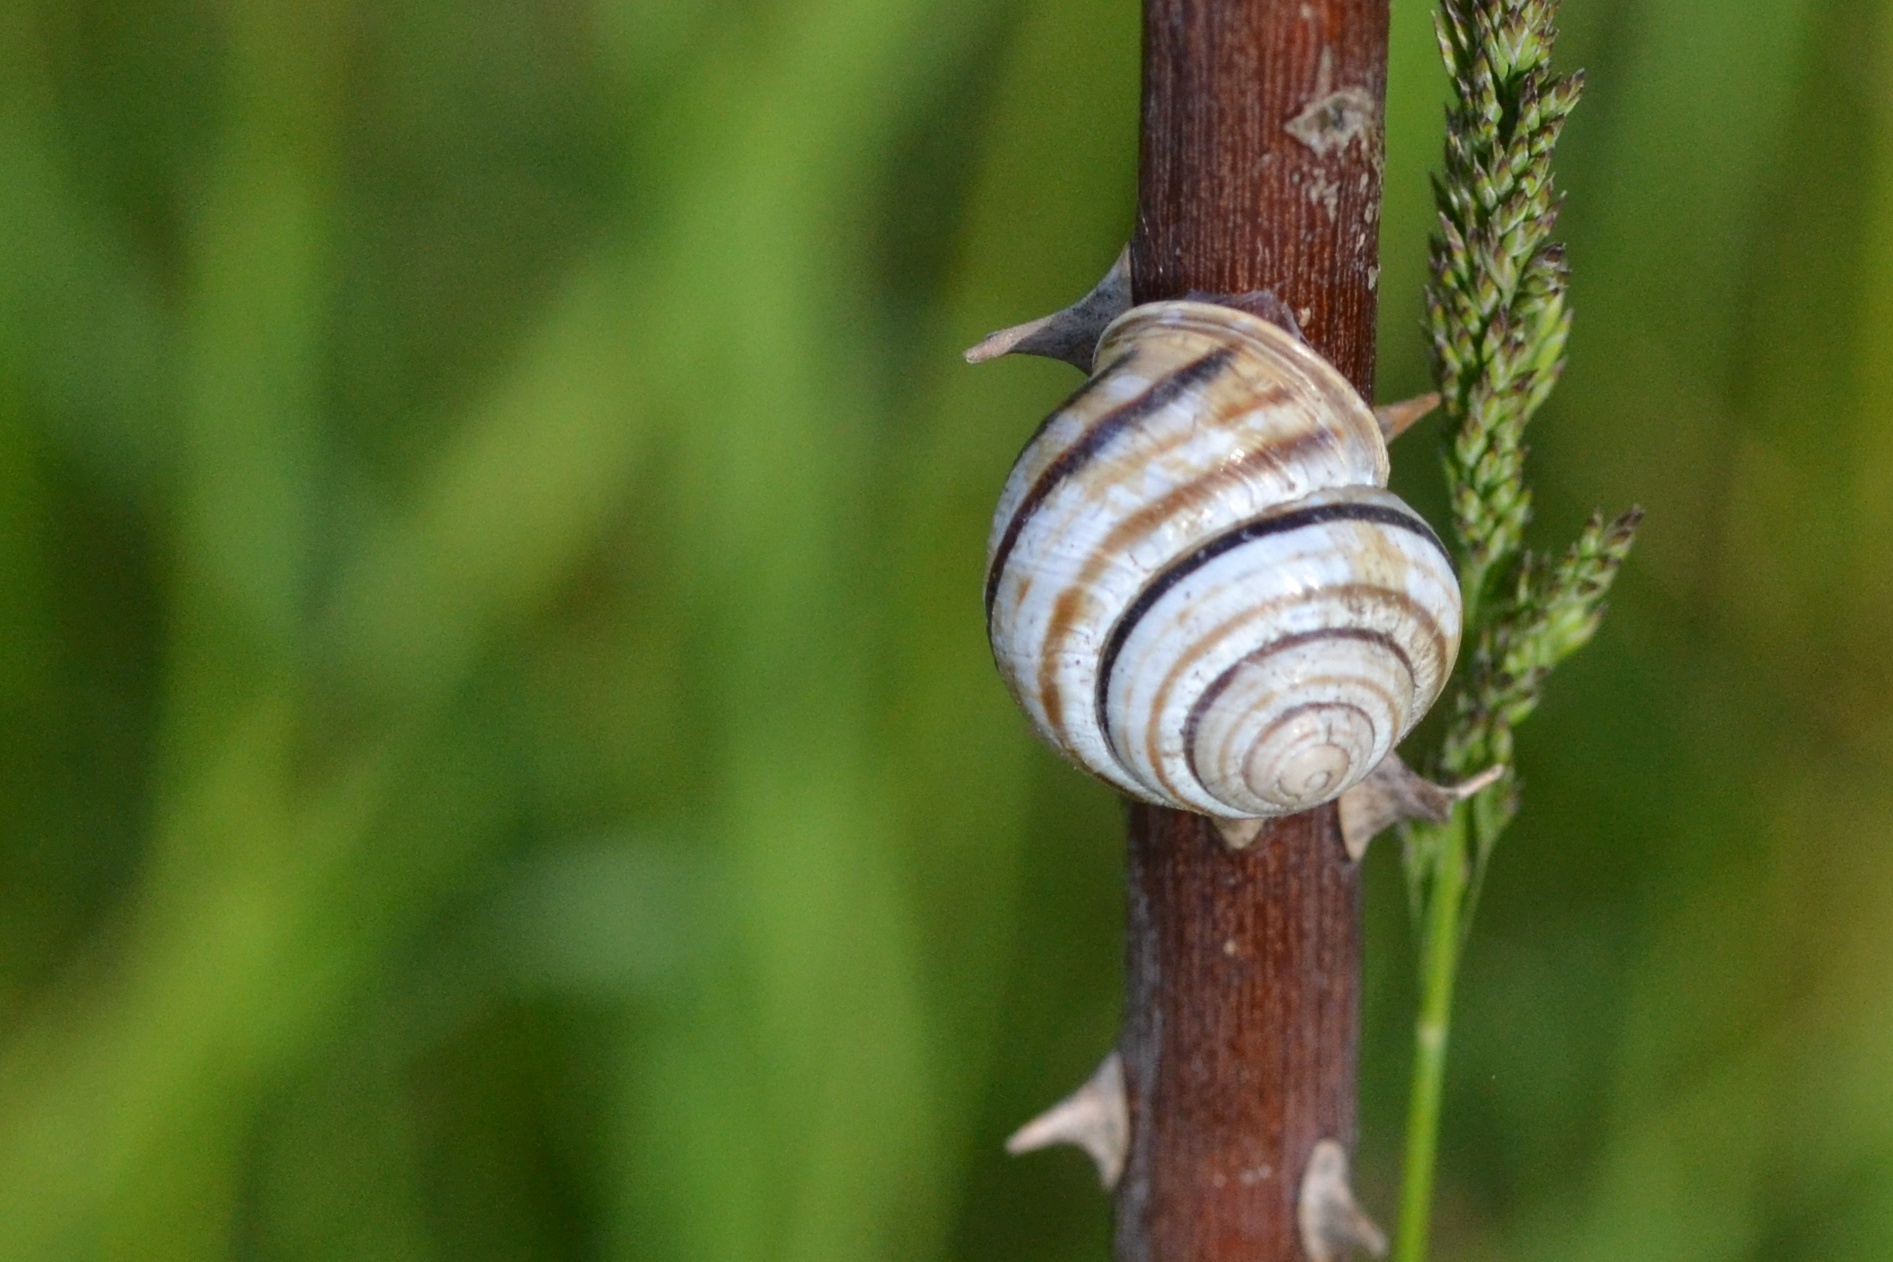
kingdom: Animalia
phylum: Mollusca
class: Gastropoda
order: Stylommatophora
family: Helicidae
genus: Caucasotachea
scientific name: Caucasotachea vindobonensis
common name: European helicid land snail
